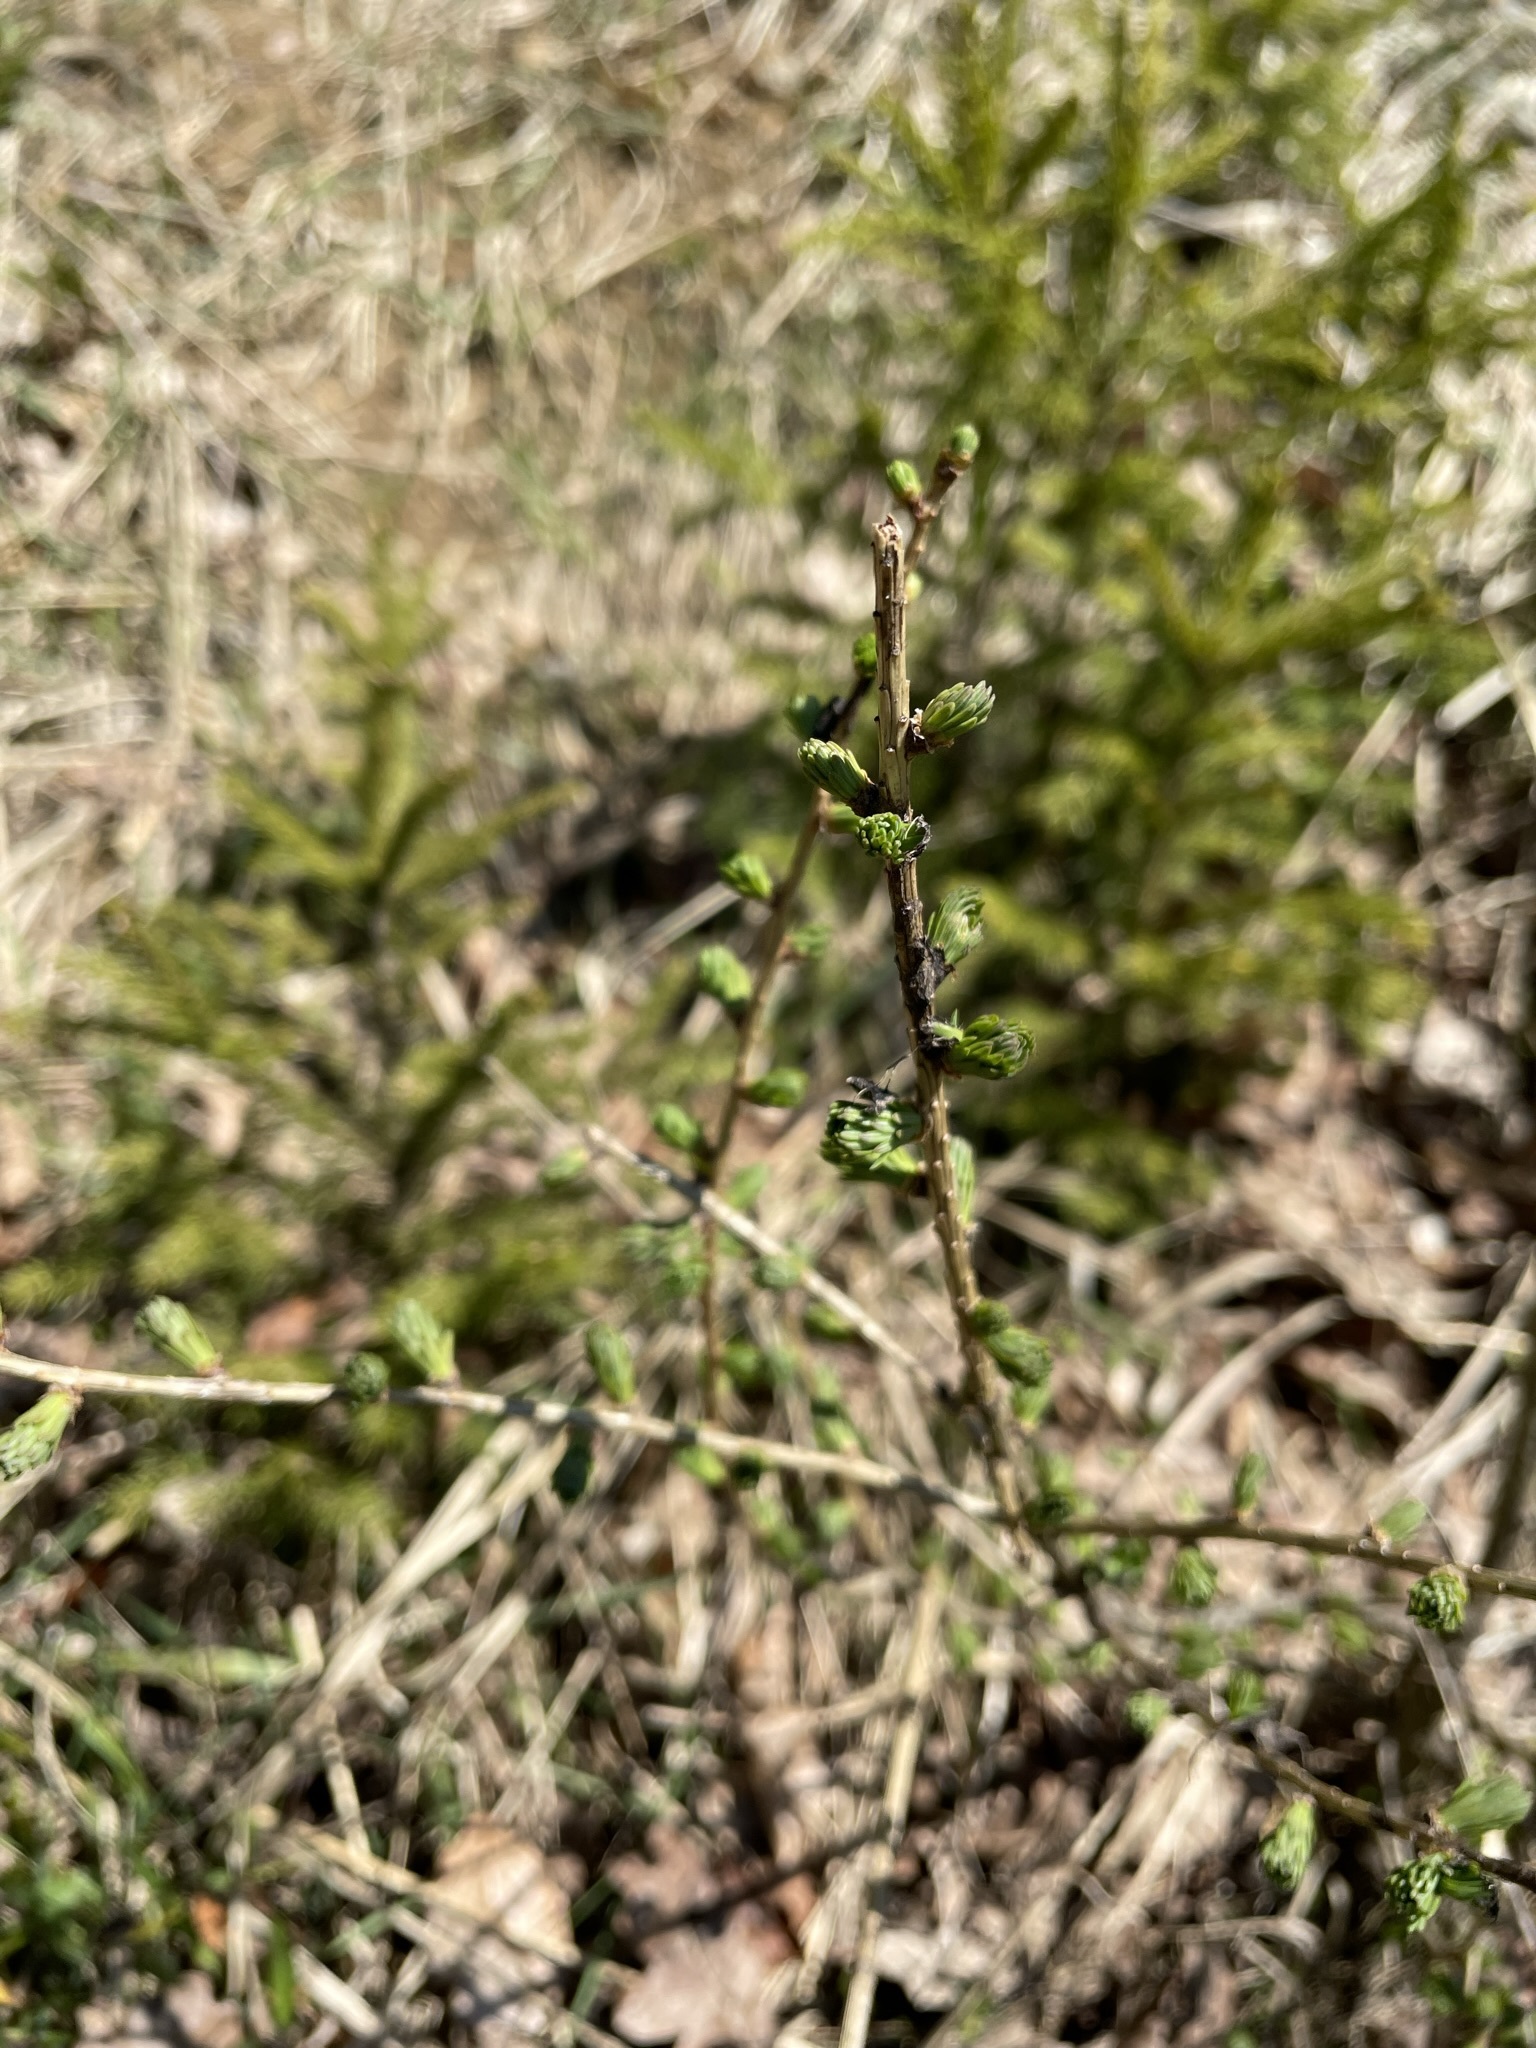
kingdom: Plantae
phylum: Tracheophyta
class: Pinopsida
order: Pinales
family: Pinaceae
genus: Larix
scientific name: Larix decidua
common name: European larch
